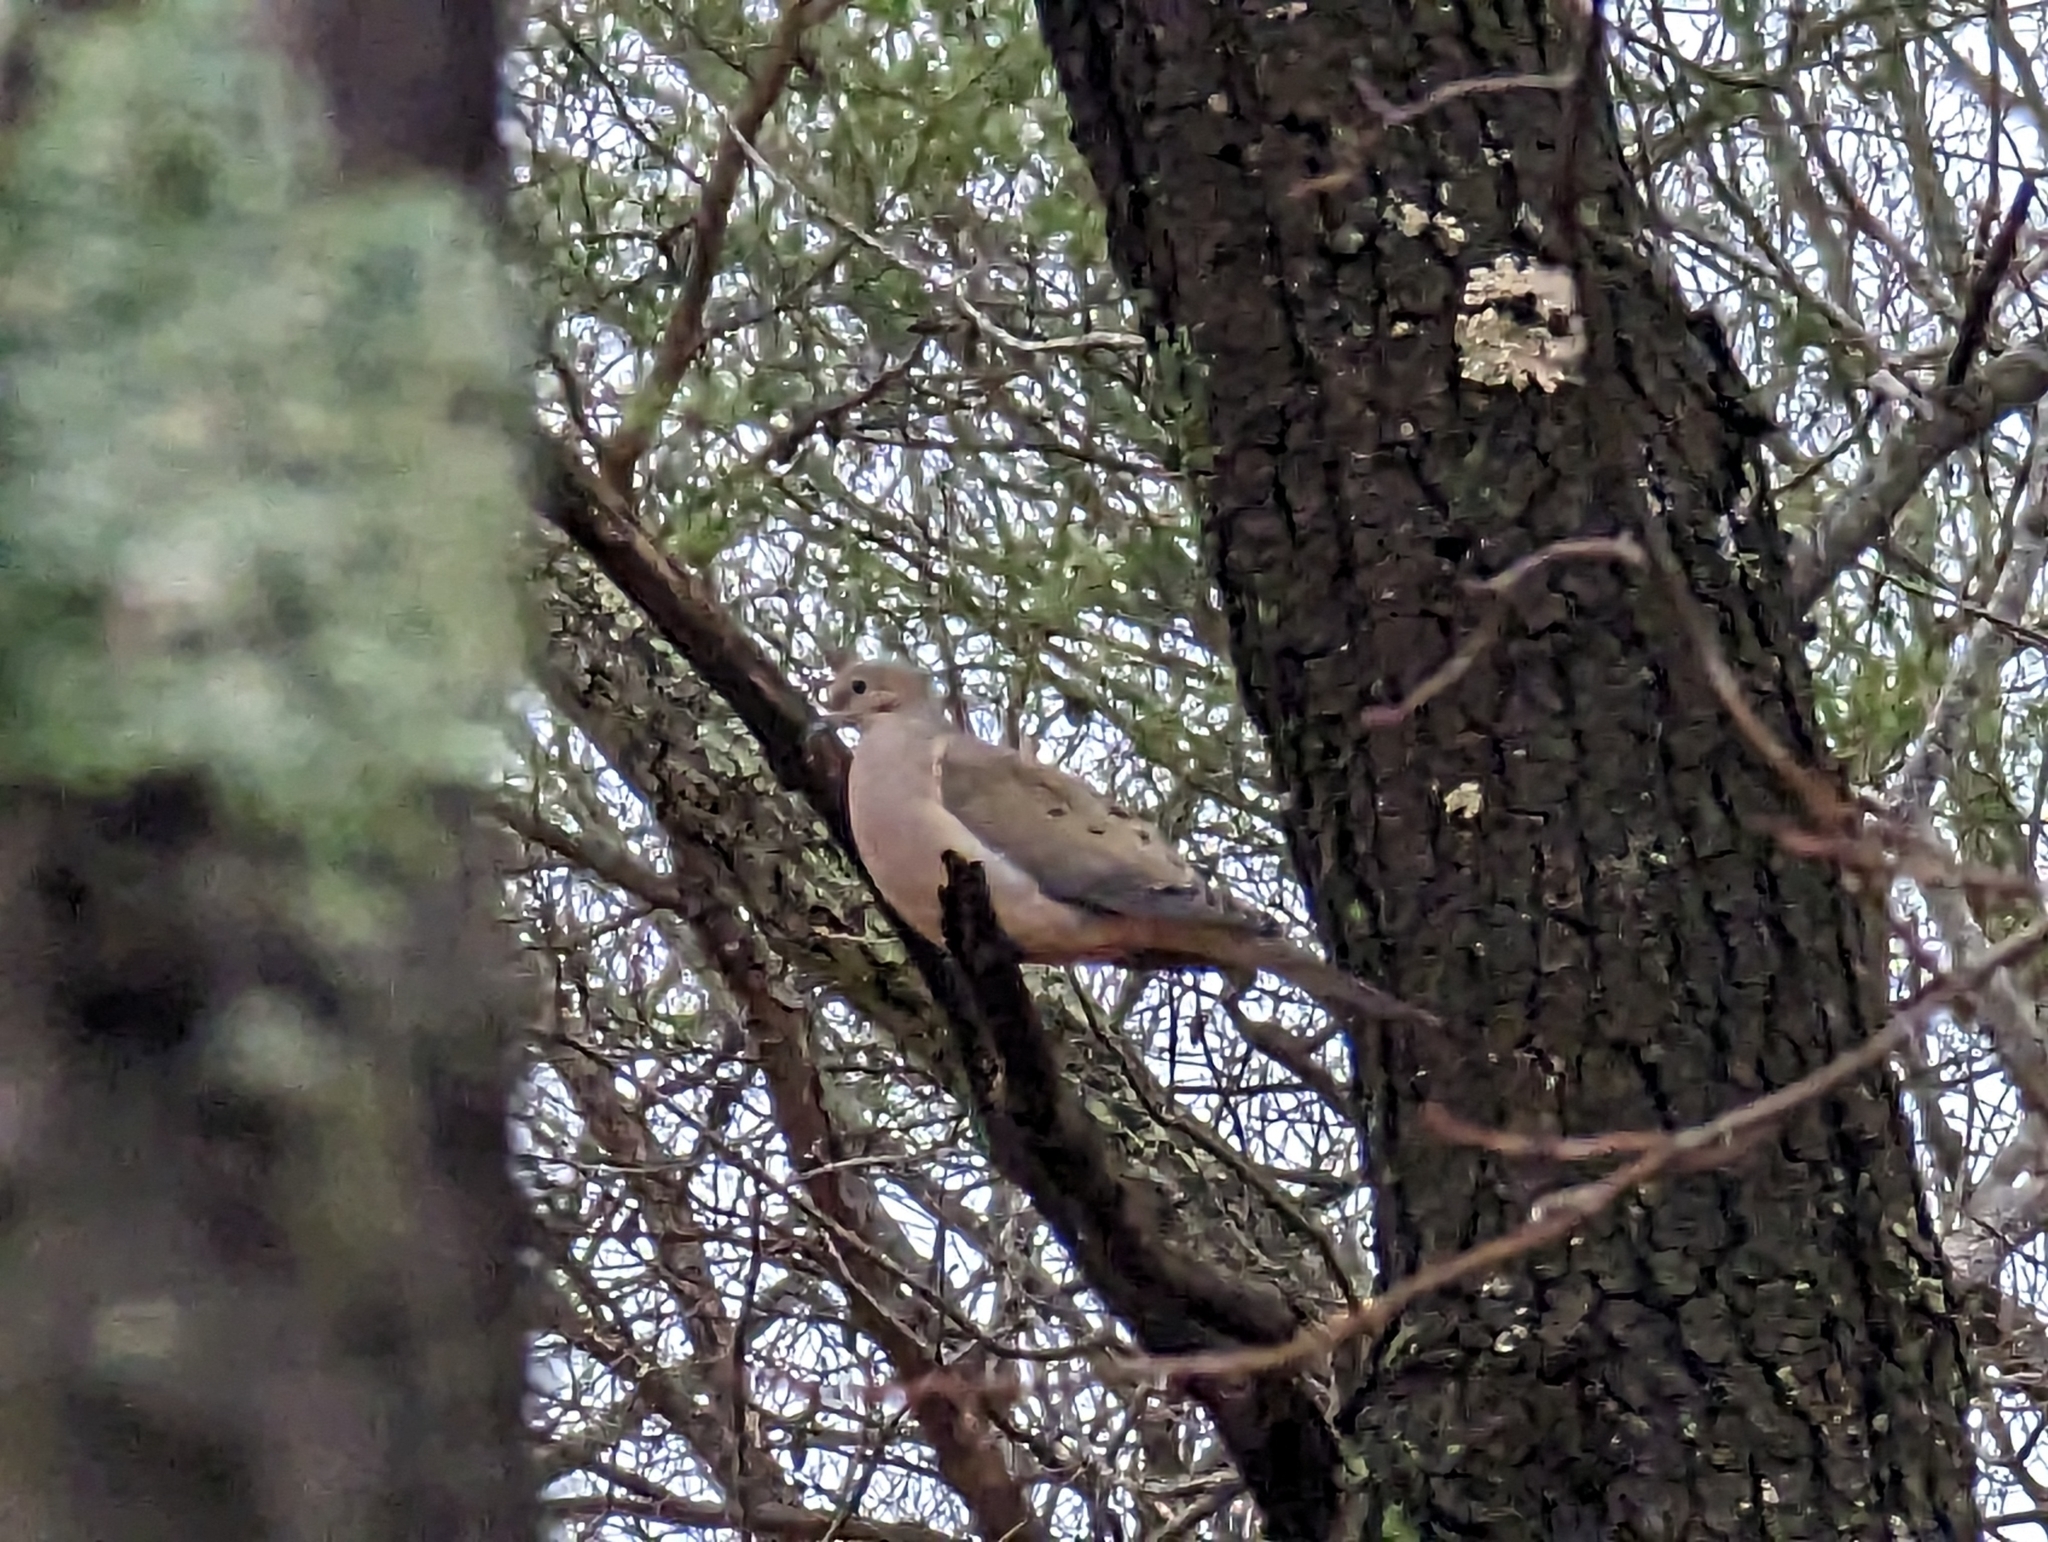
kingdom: Animalia
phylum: Chordata
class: Aves
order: Columbiformes
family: Columbidae
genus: Zenaida
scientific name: Zenaida macroura
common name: Mourning dove
